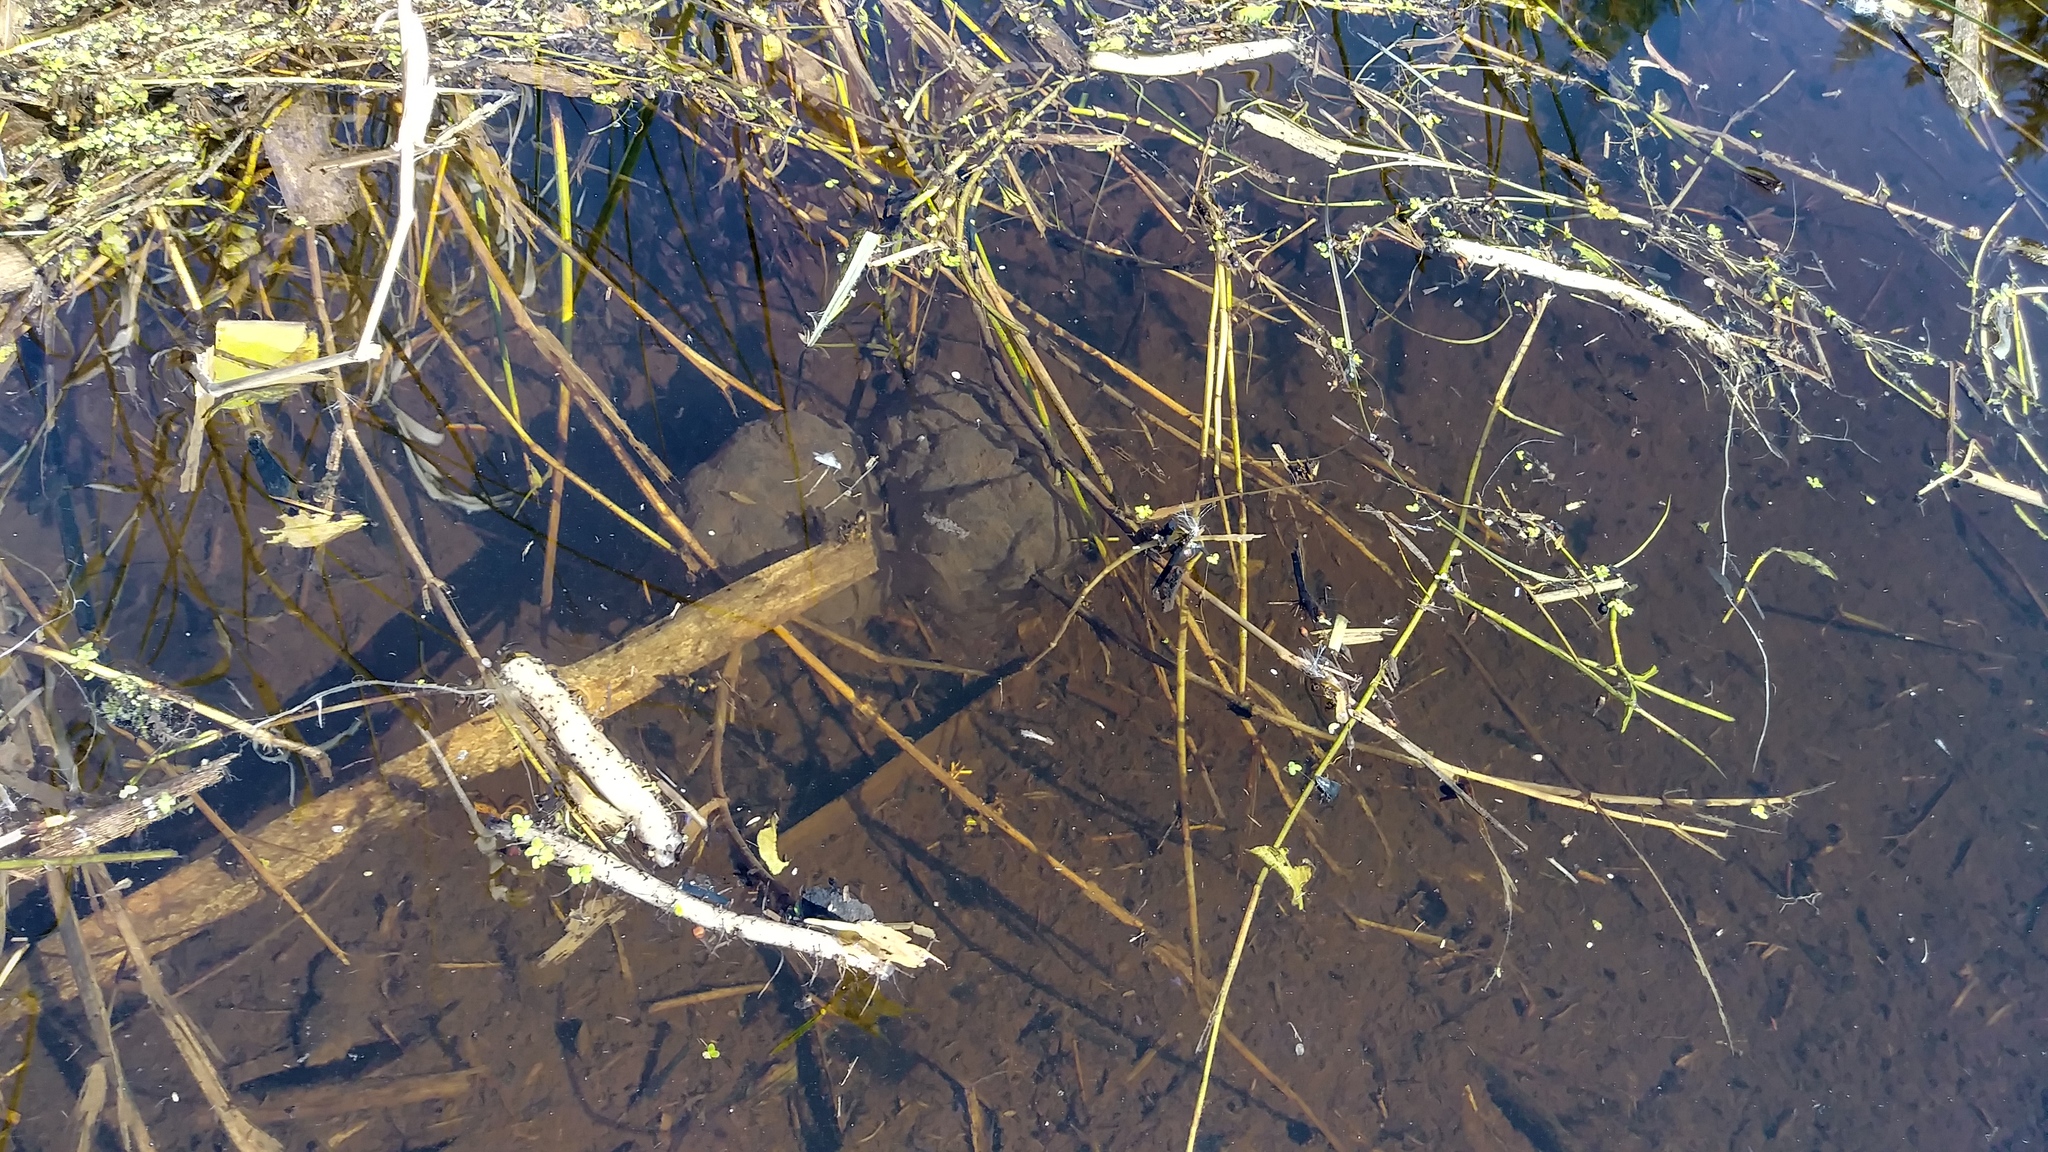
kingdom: Animalia
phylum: Chordata
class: Amphibia
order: Caudata
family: Ambystomatidae
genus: Ambystoma
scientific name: Ambystoma gracile
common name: Northwestern salamander
